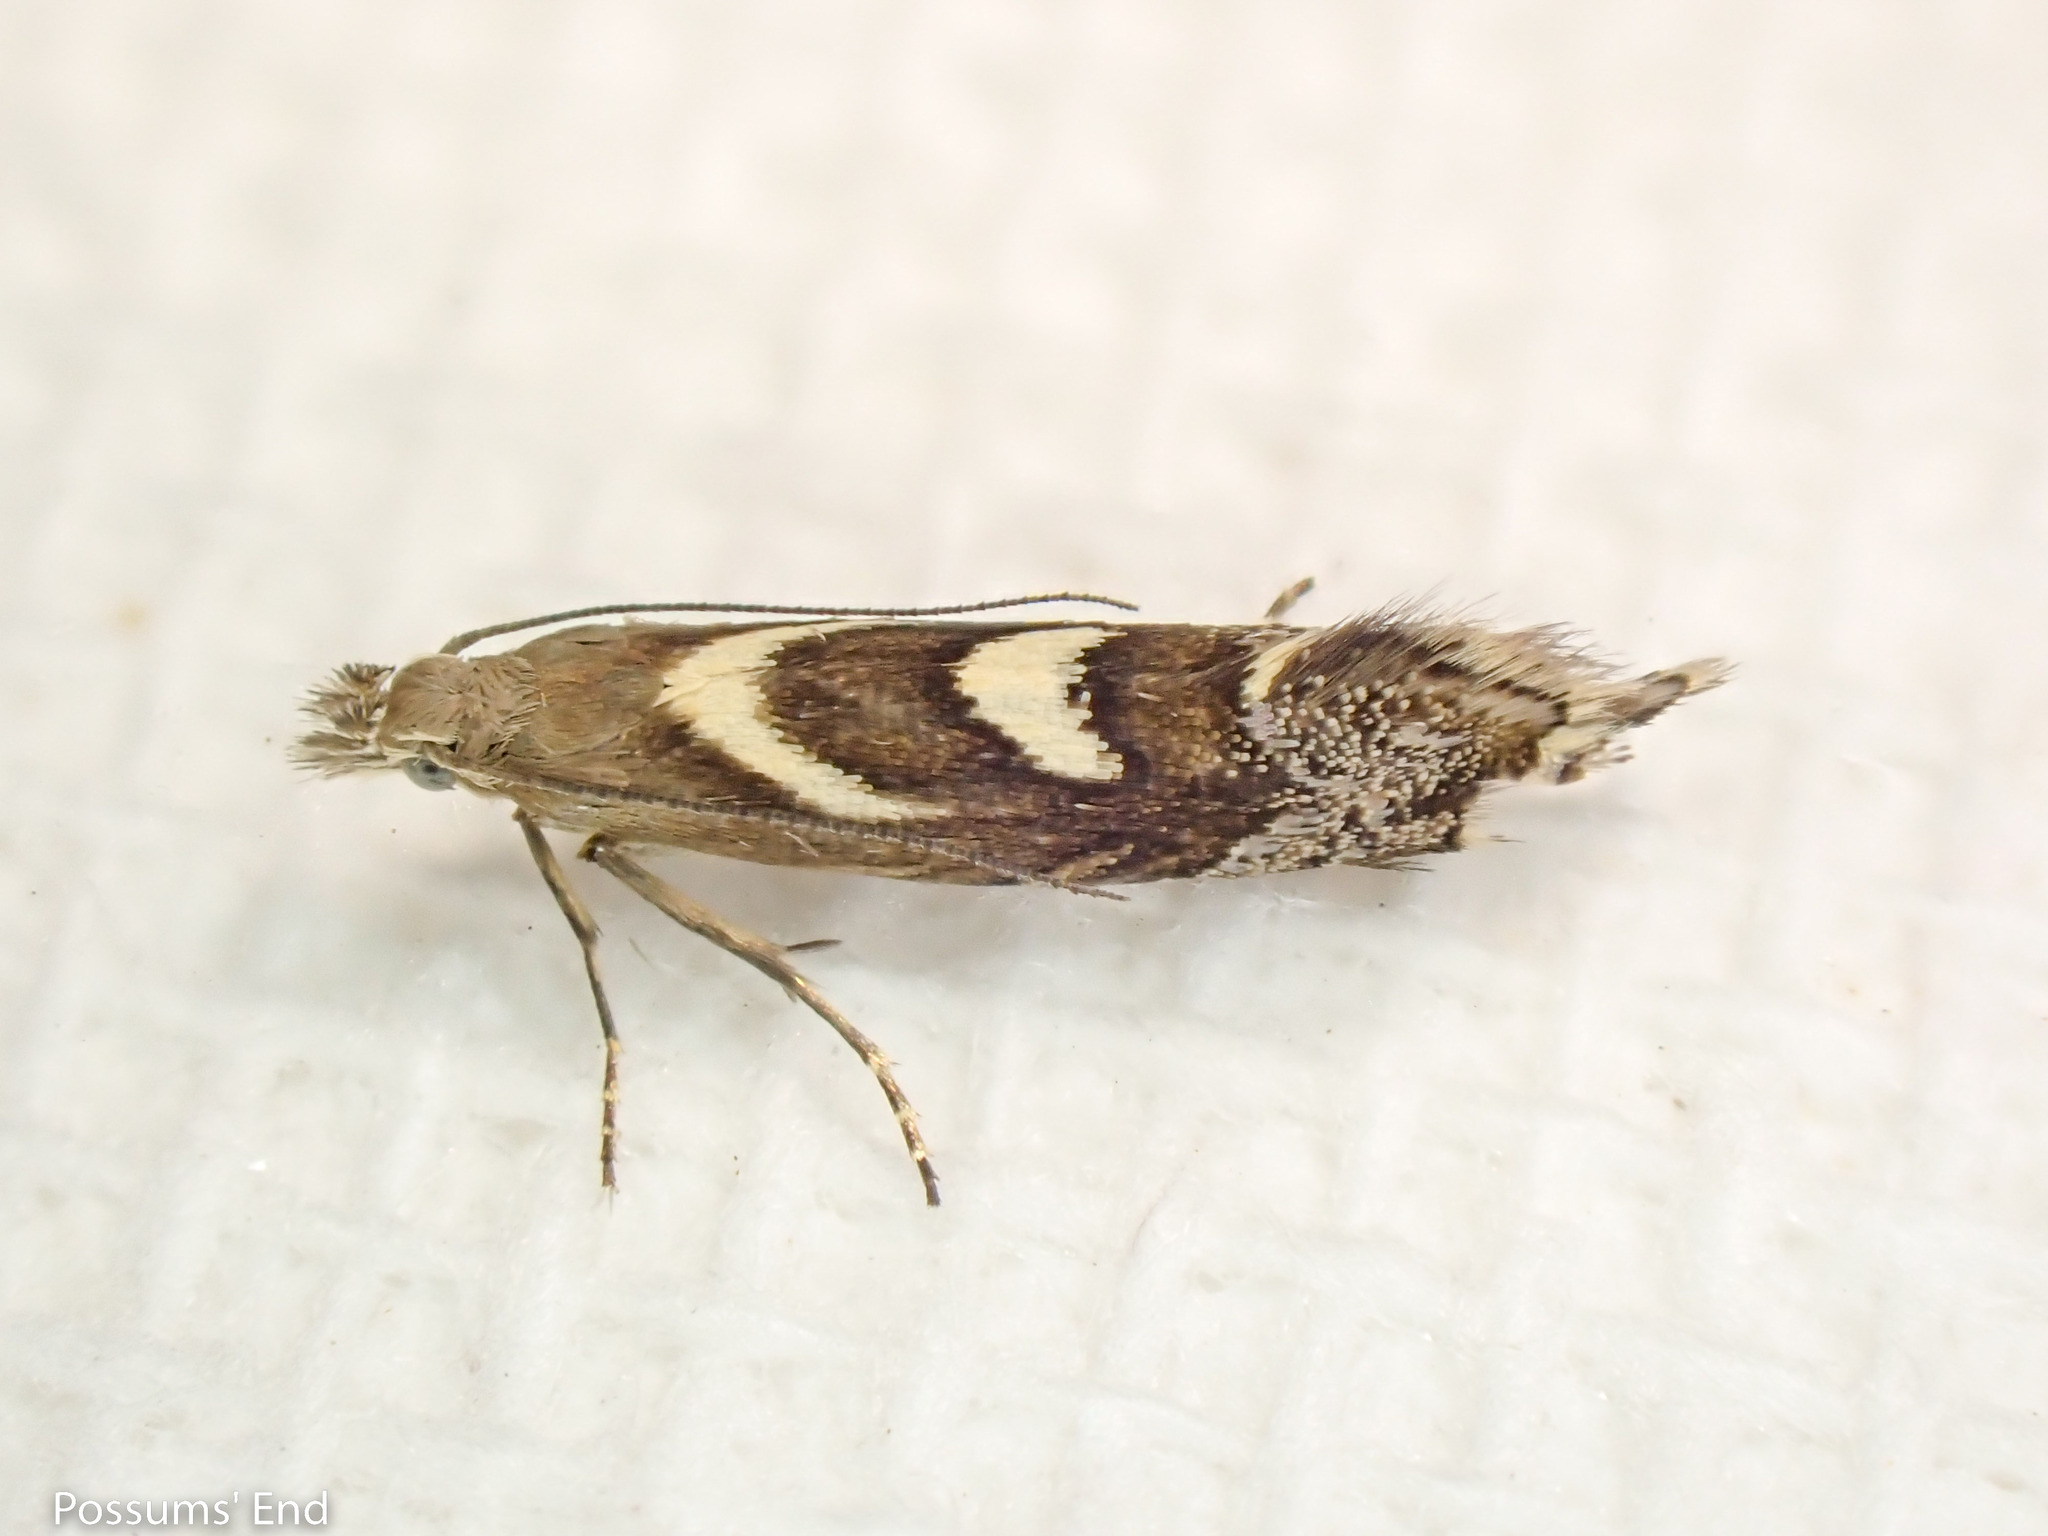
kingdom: Animalia
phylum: Arthropoda
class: Insecta
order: Lepidoptera
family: Glyphipterigidae
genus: Glyphipterix
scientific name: Glyphipterix asteronota
